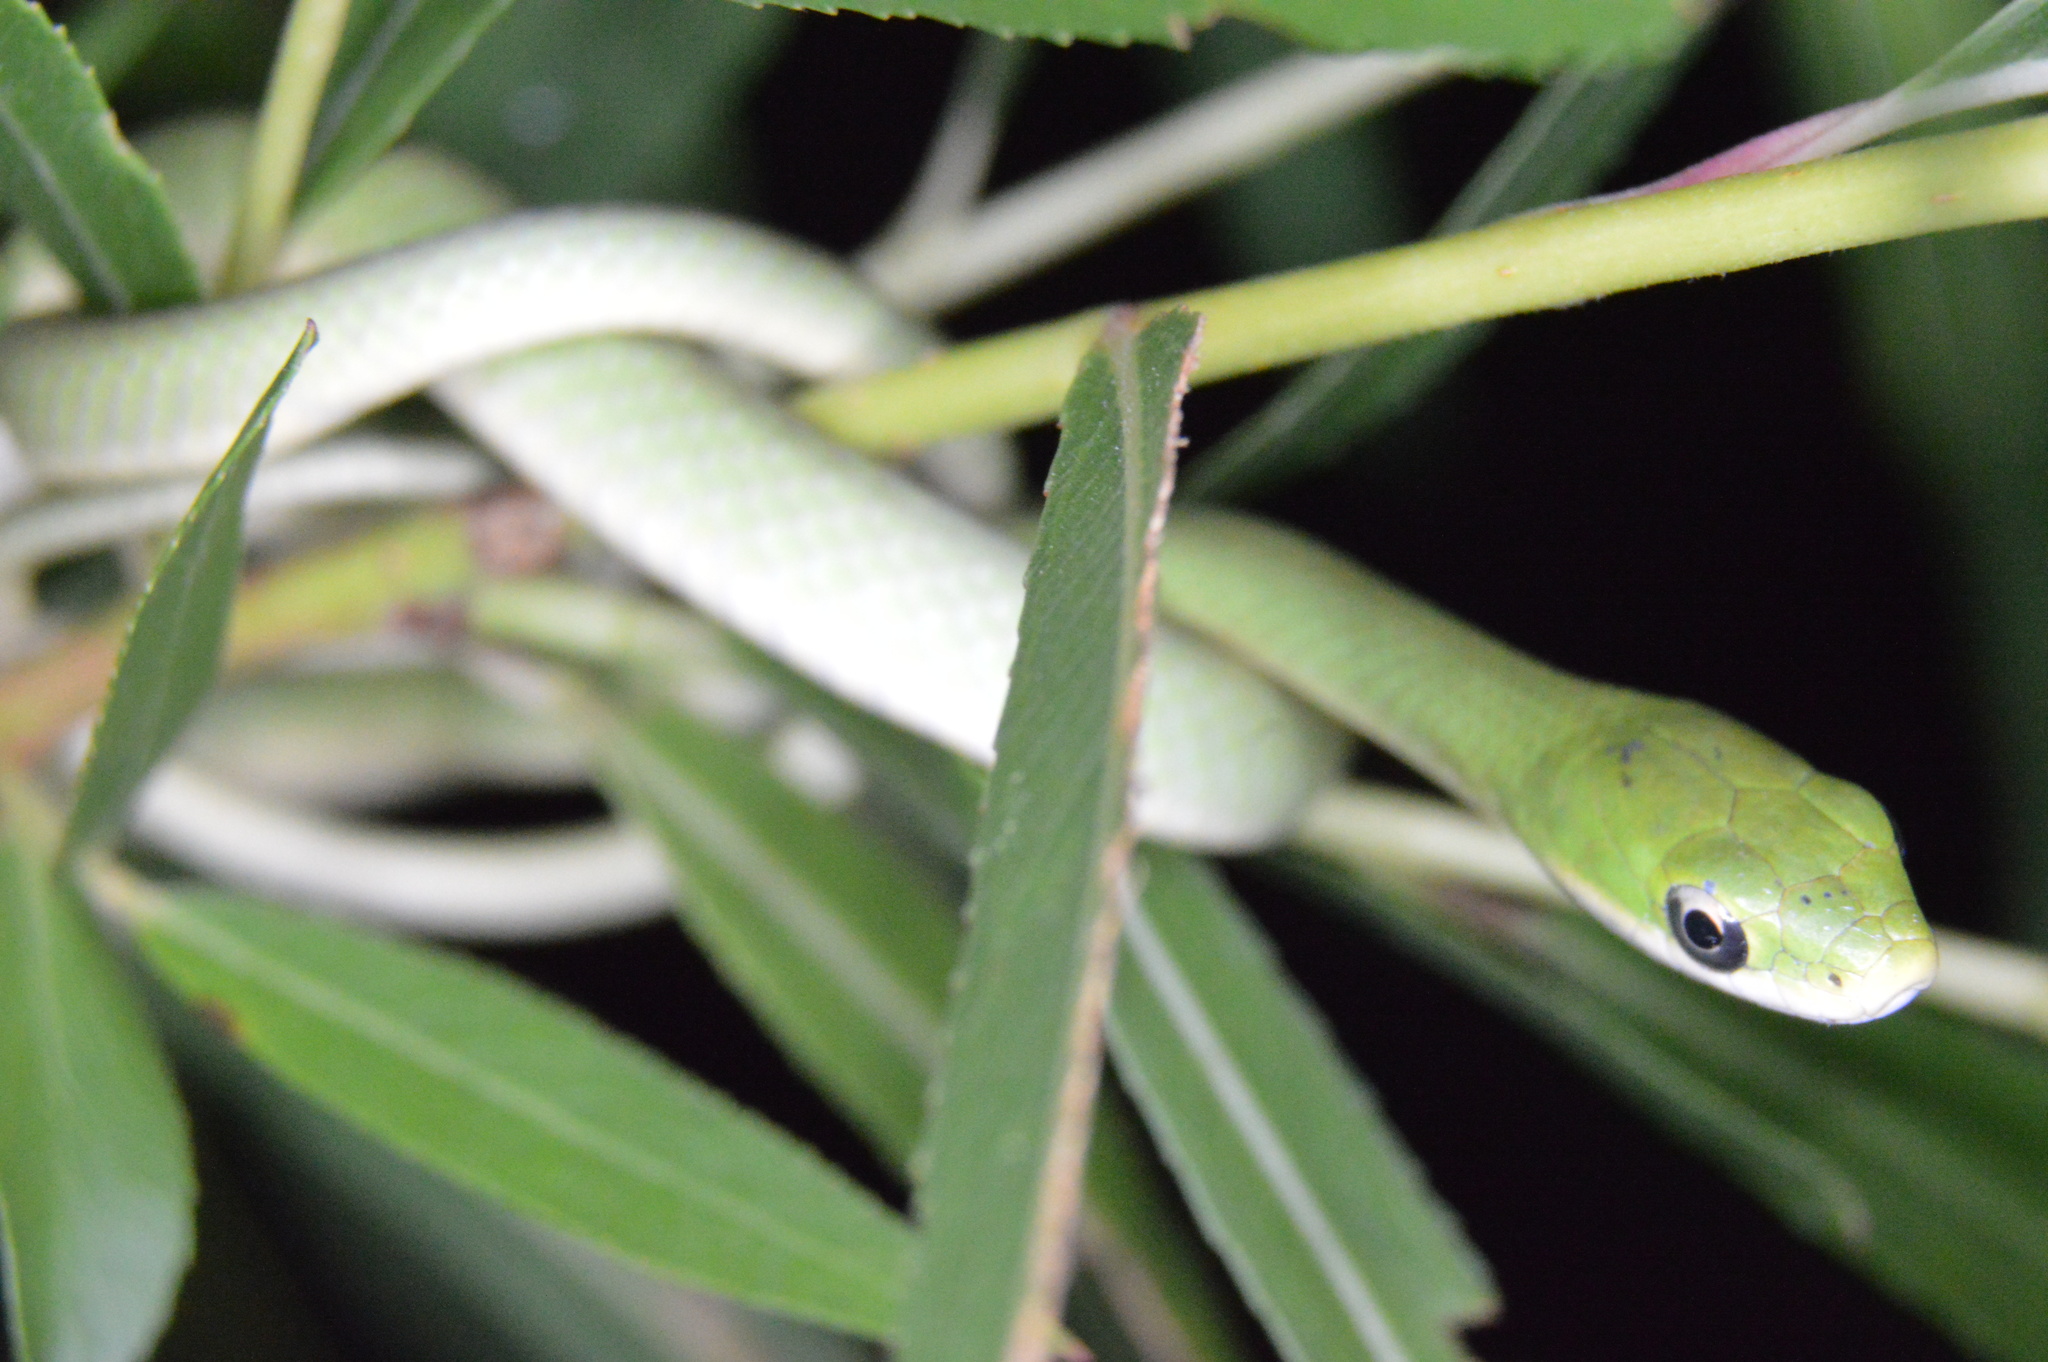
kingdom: Animalia
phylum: Chordata
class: Squamata
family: Colubridae
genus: Opheodrys
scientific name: Opheodrys aestivus
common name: Rough greensnake
